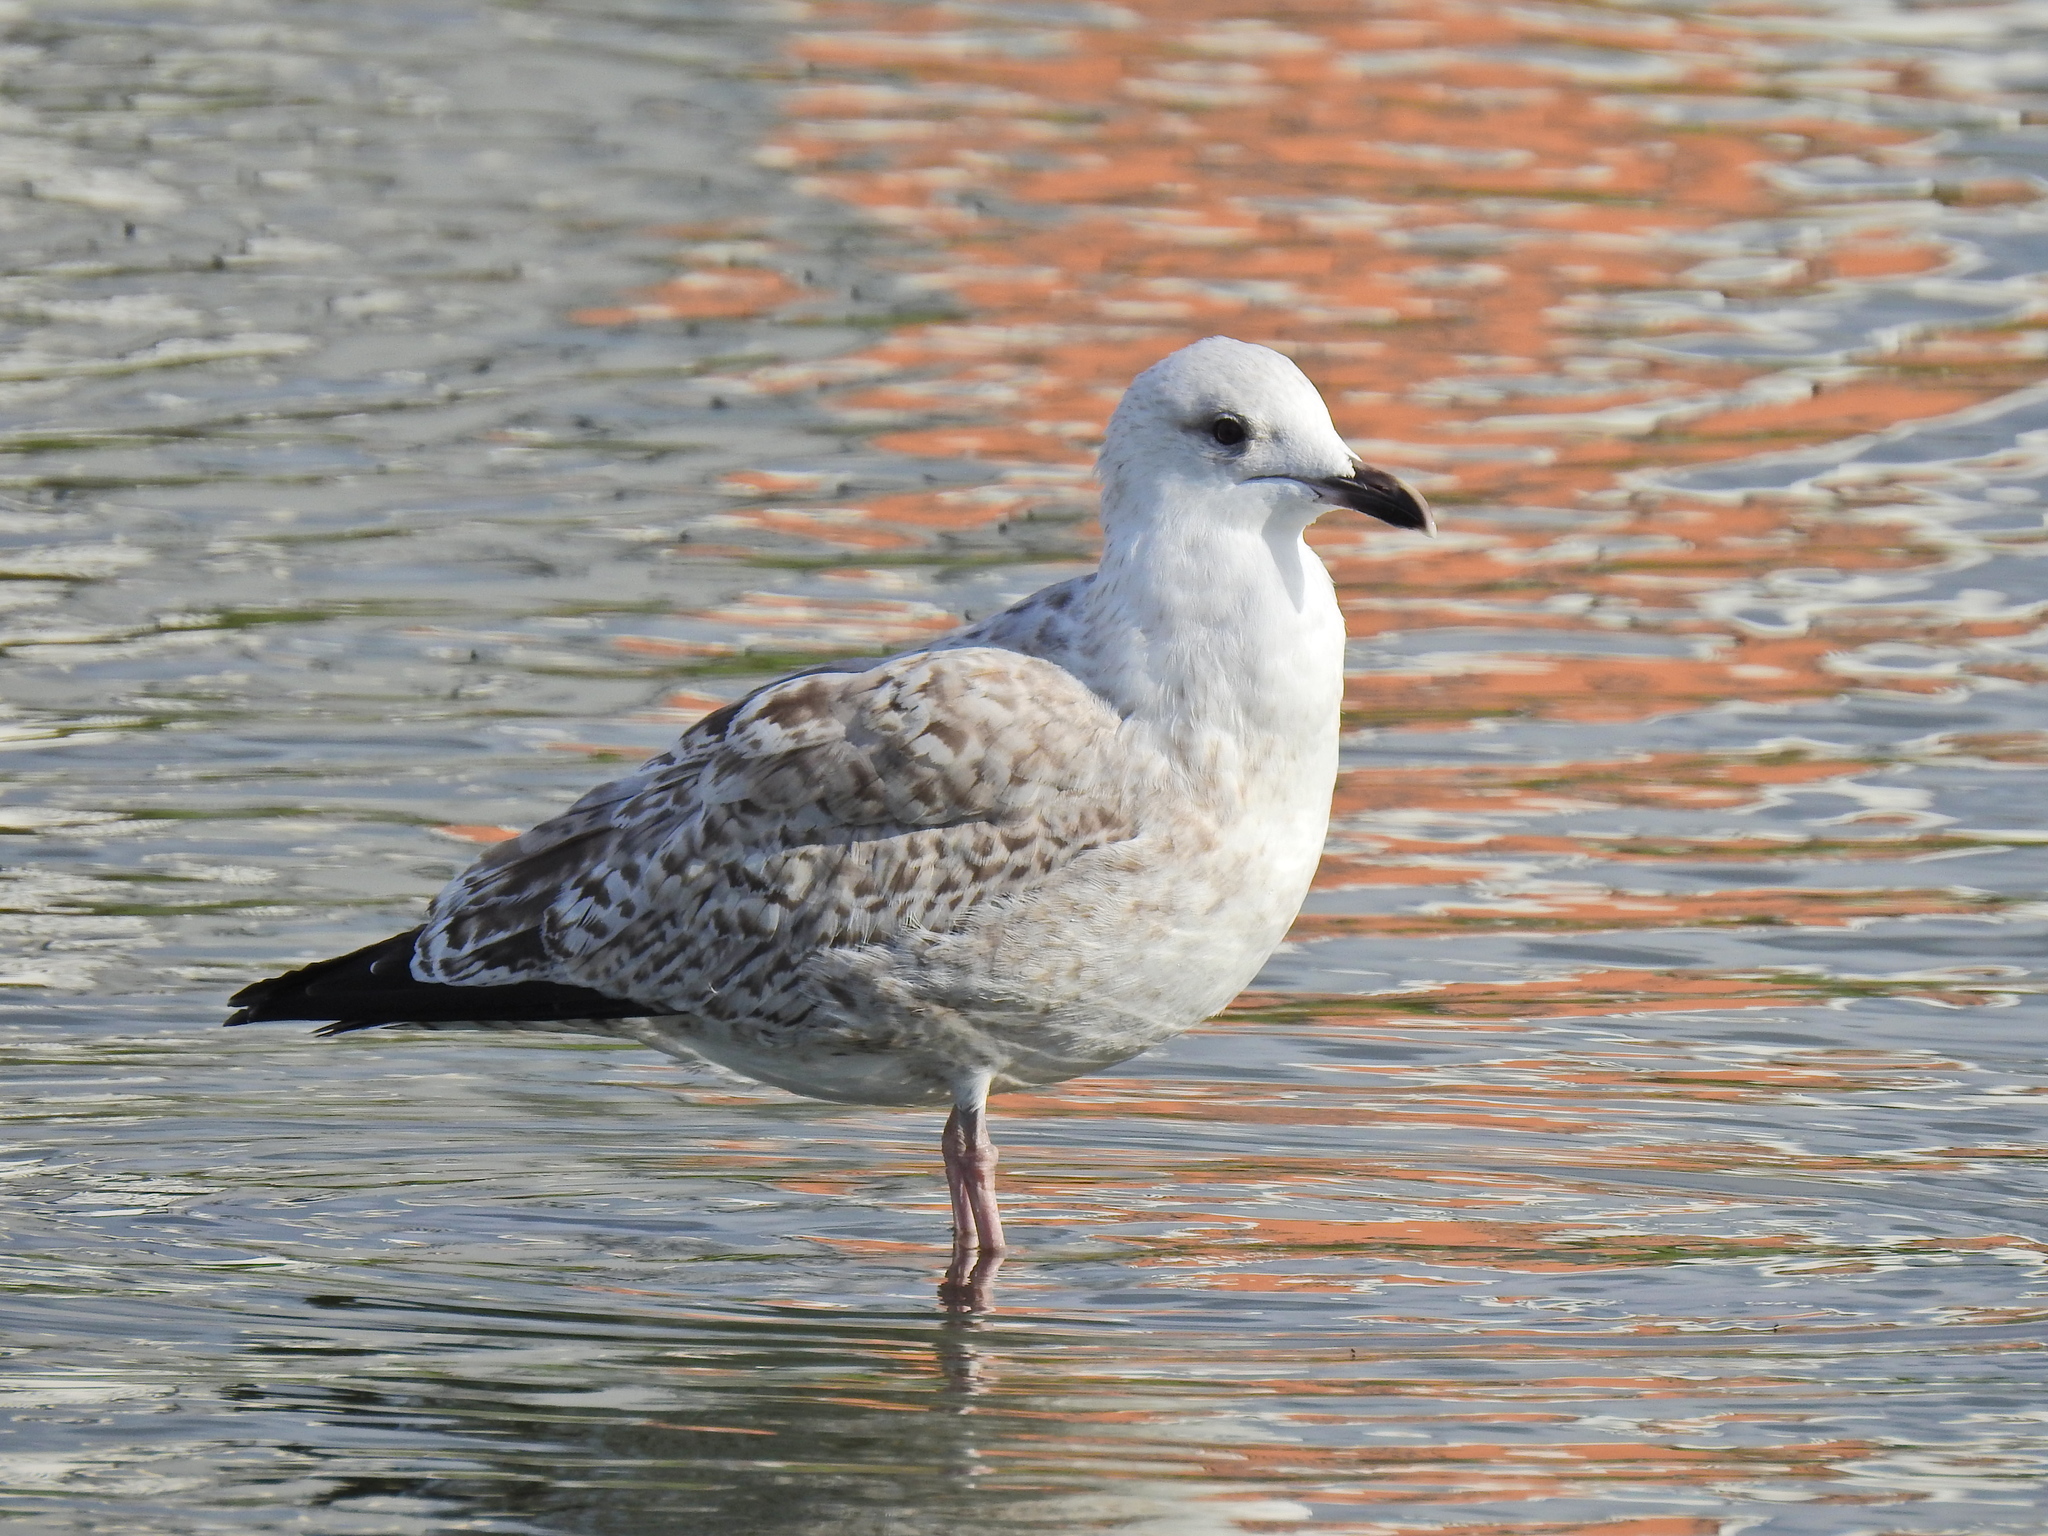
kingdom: Animalia
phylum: Chordata
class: Aves
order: Charadriiformes
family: Laridae
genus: Larus
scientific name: Larus argentatus
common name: Herring gull
